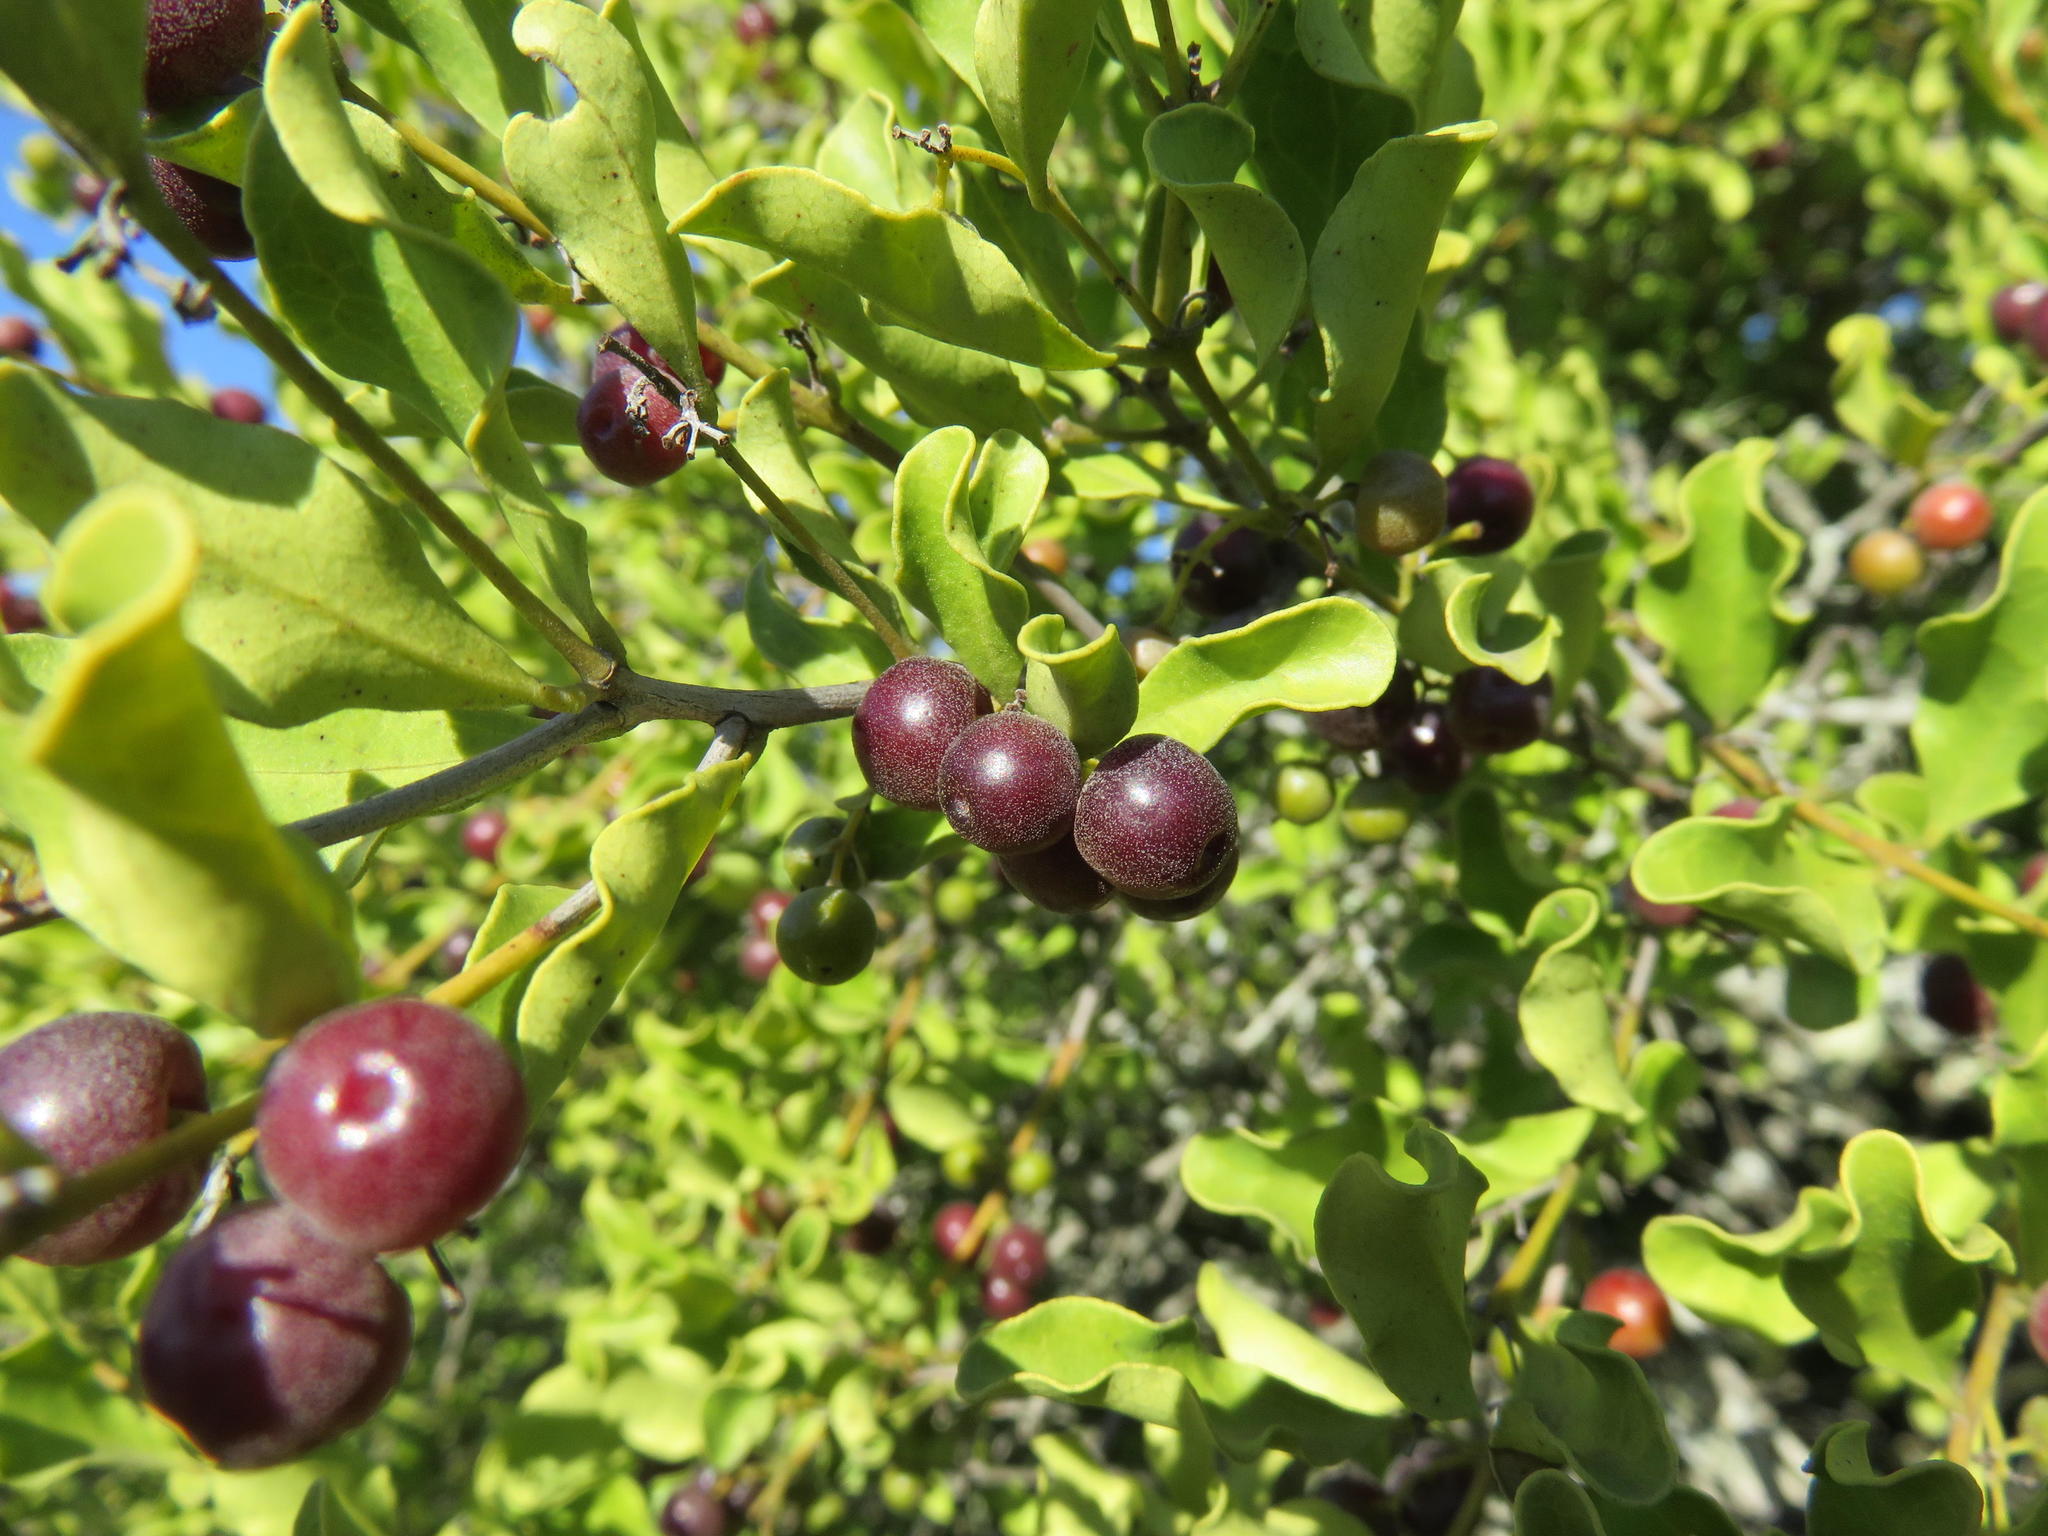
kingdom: Plantae
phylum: Tracheophyta
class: Magnoliopsida
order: Ericales
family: Ebenaceae
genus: Euclea
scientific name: Euclea undulata
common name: Small-leaved guarri
